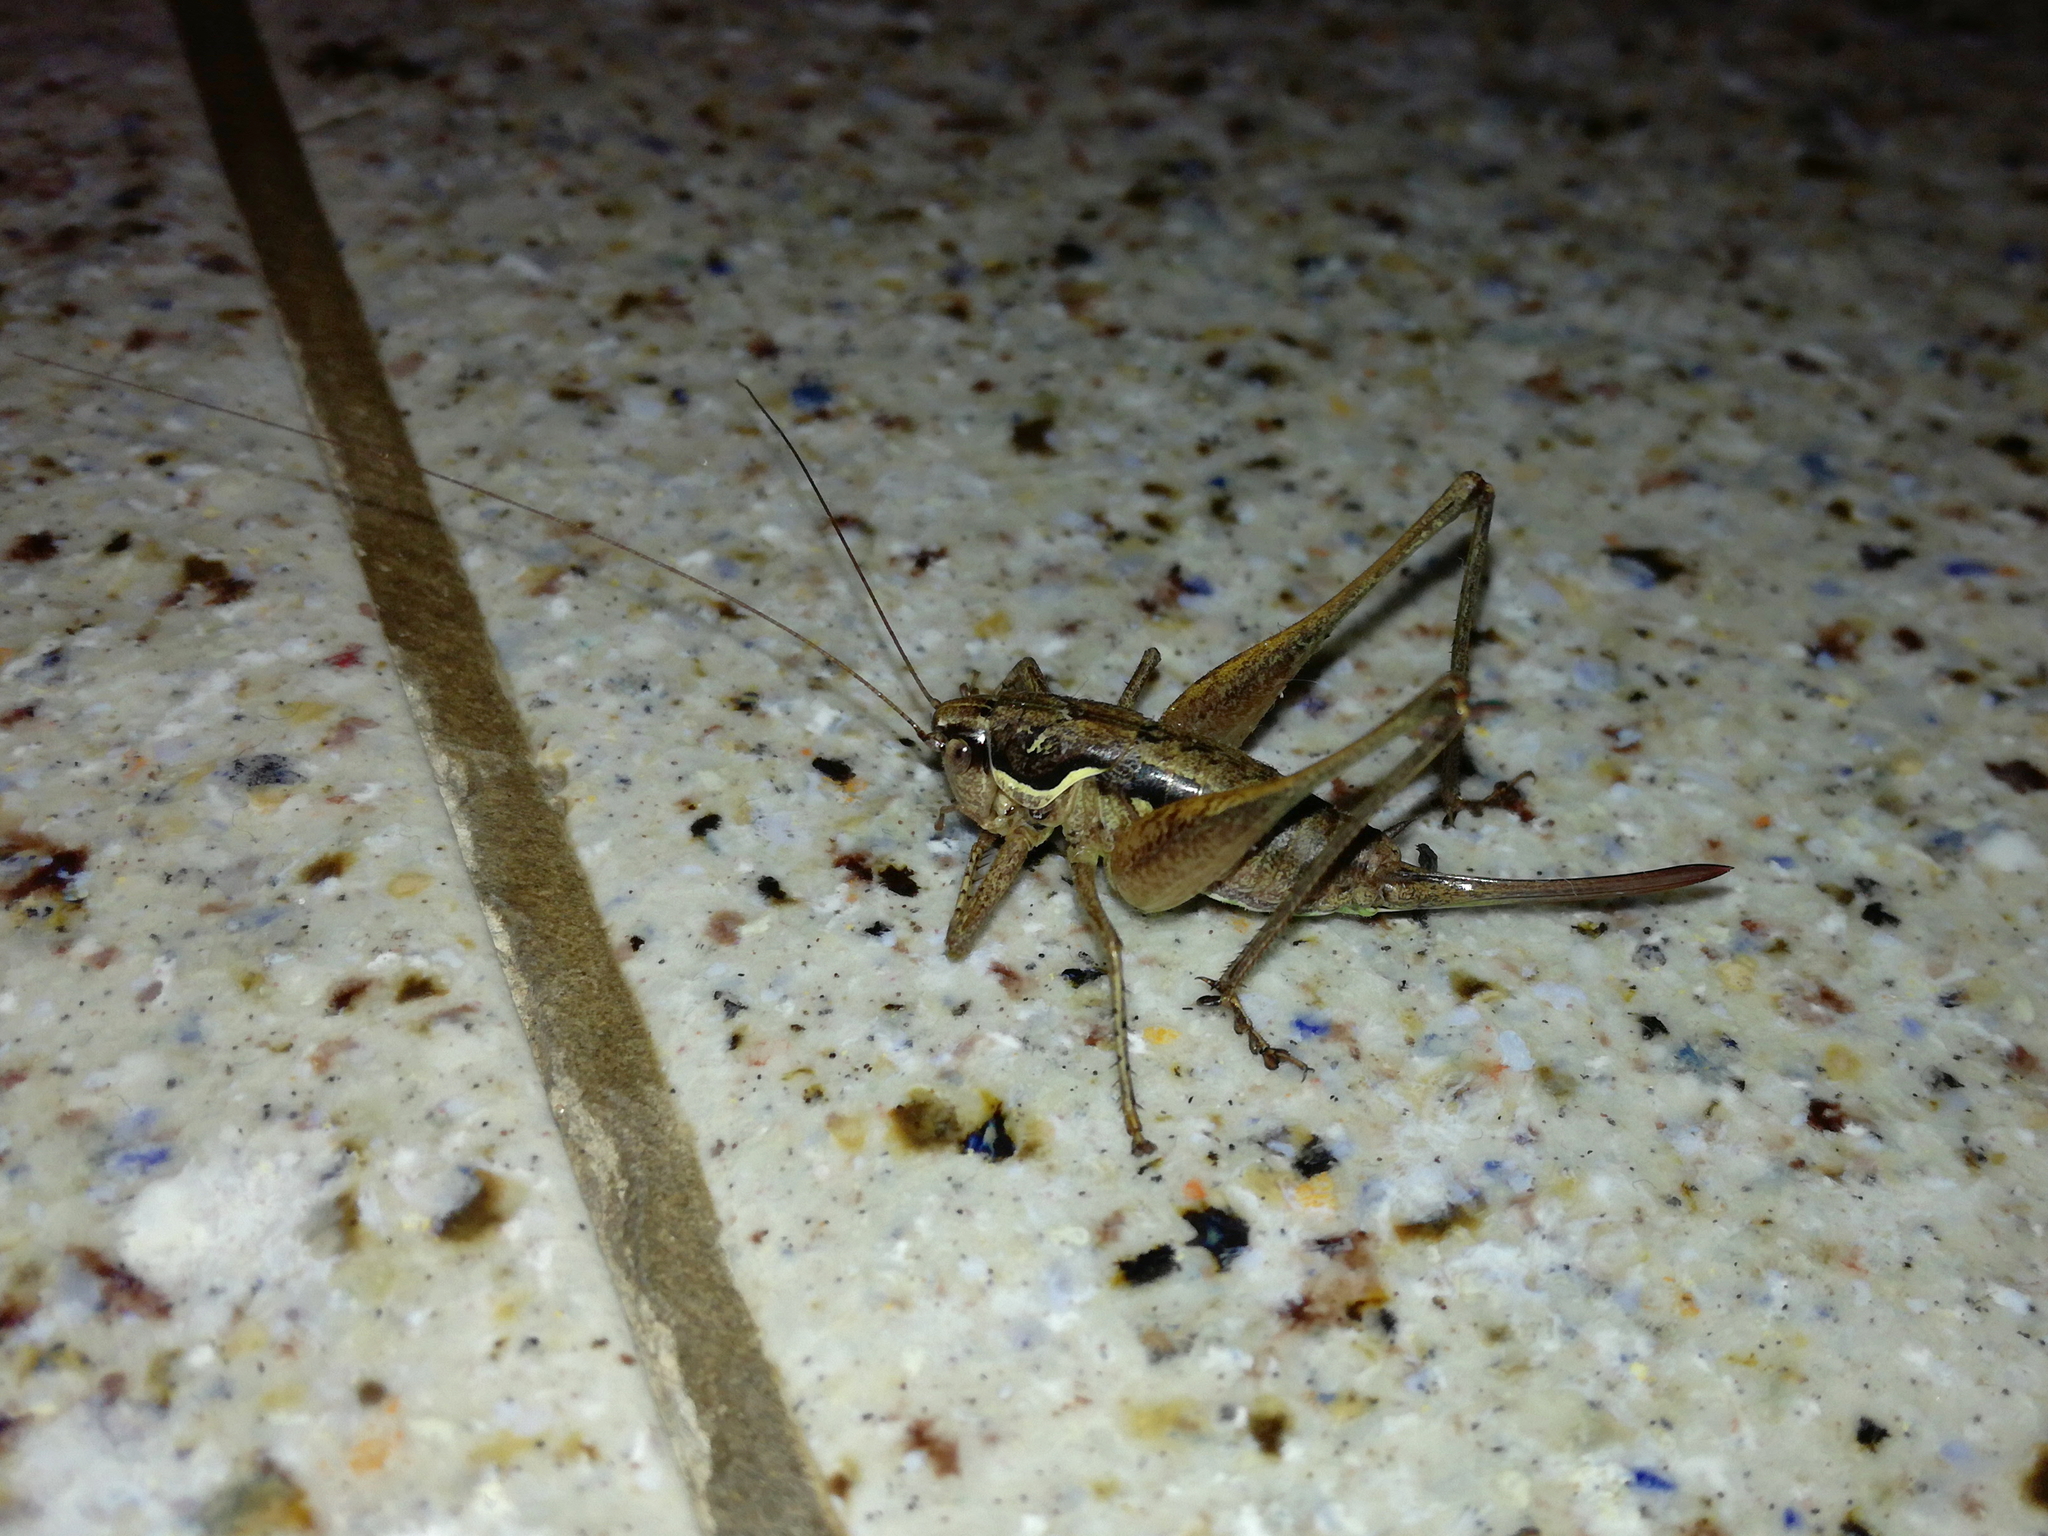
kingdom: Animalia
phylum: Arthropoda
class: Insecta
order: Orthoptera
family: Tettigoniidae
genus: Pachytrachis
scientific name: Pachytrachis gracilis
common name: Graceful bush-cricket
